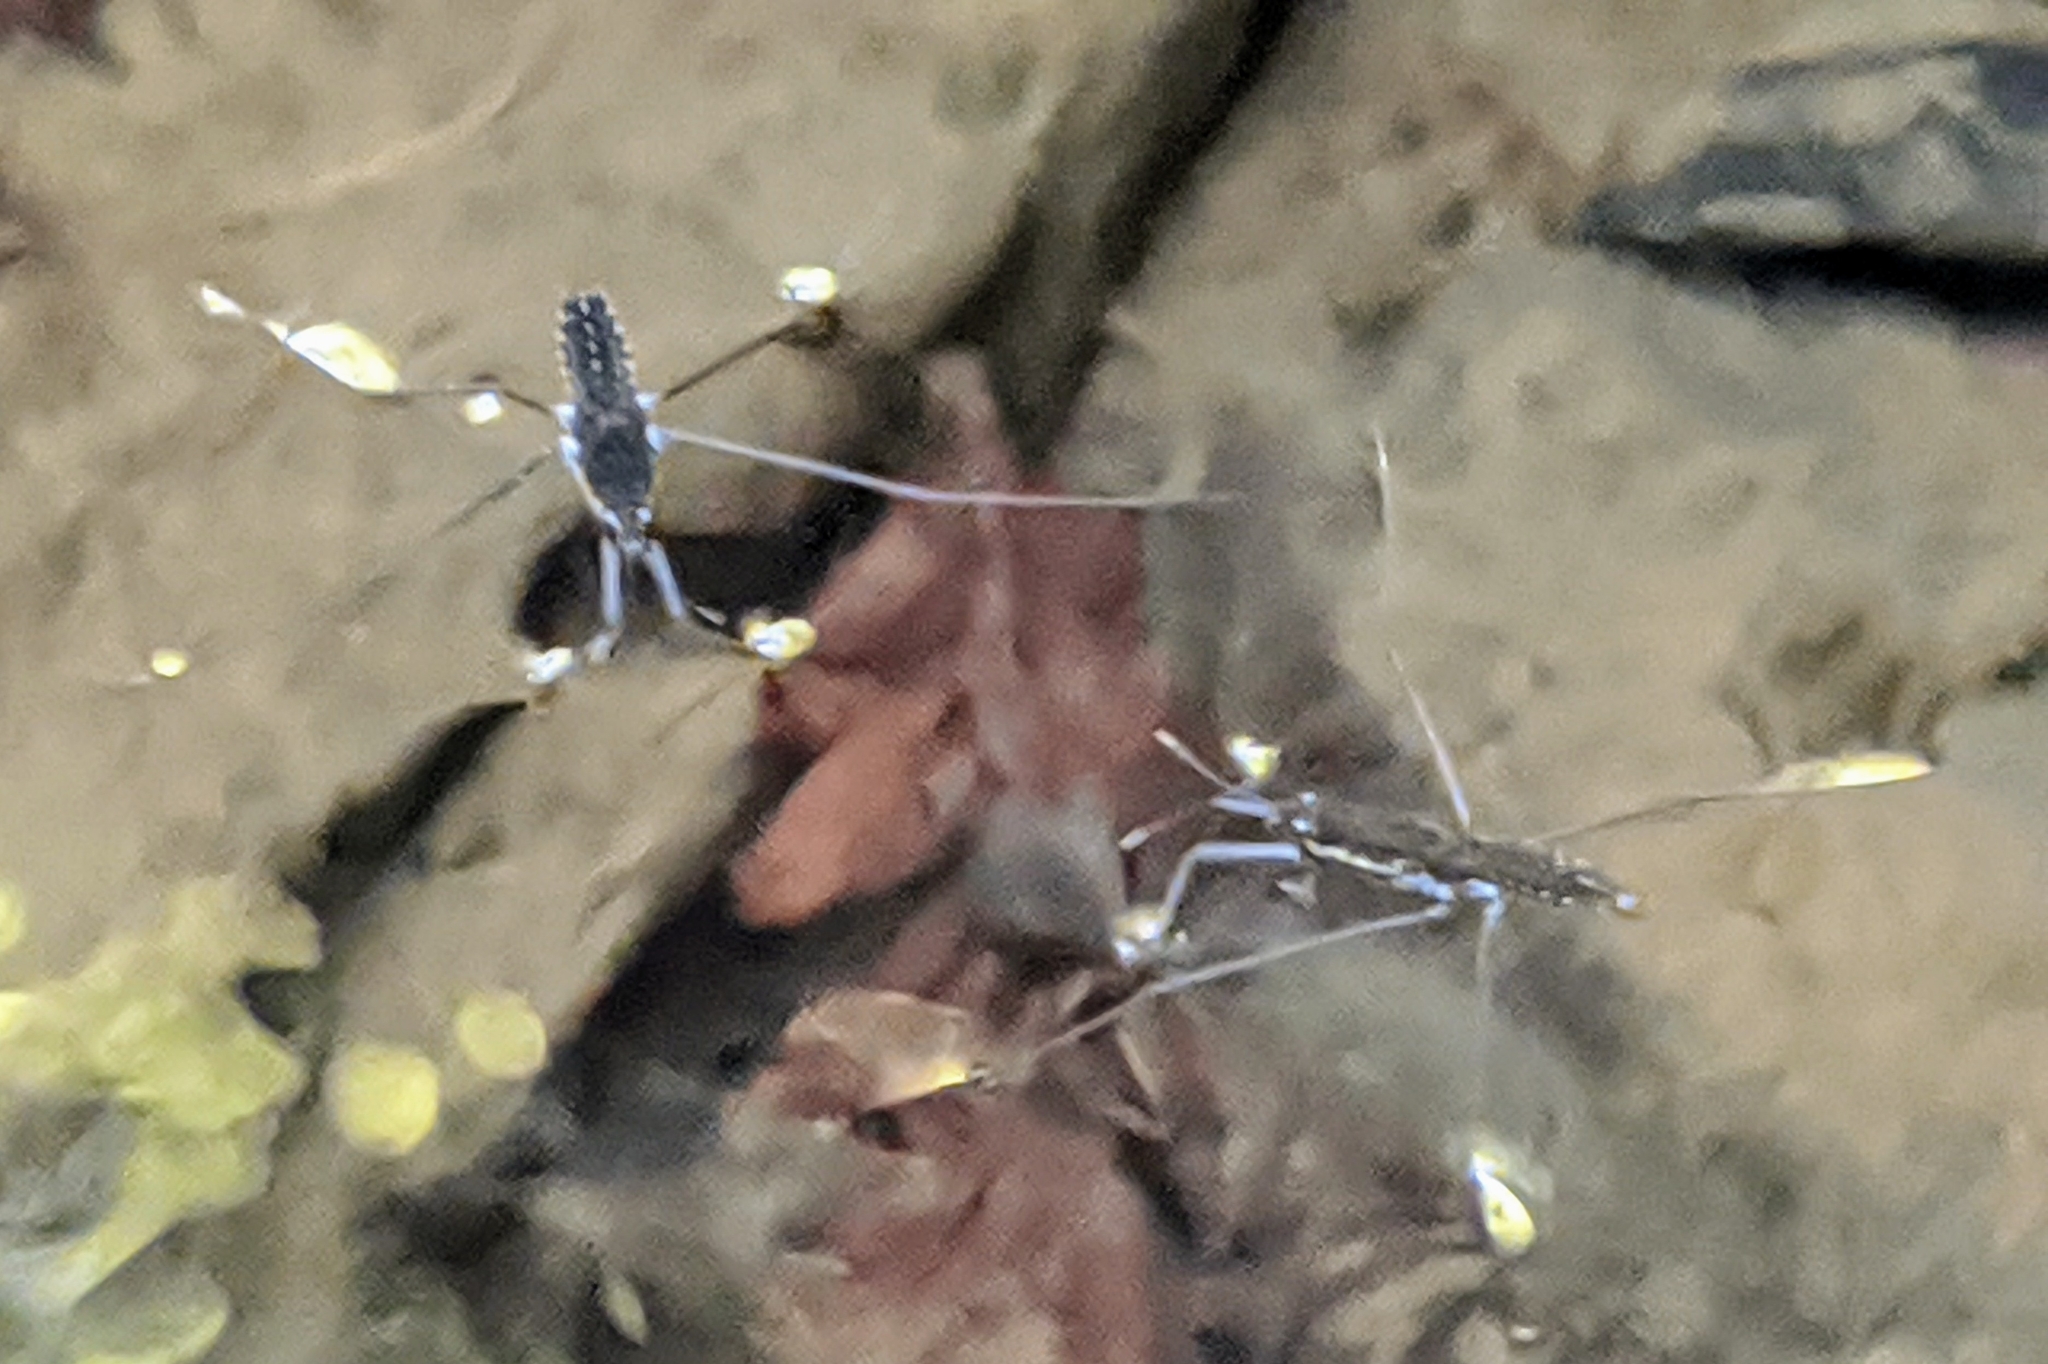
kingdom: Animalia
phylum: Arthropoda
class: Insecta
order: Hemiptera
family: Gerridae
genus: Aquarius
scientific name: Aquarius remigis
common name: Common water strider
